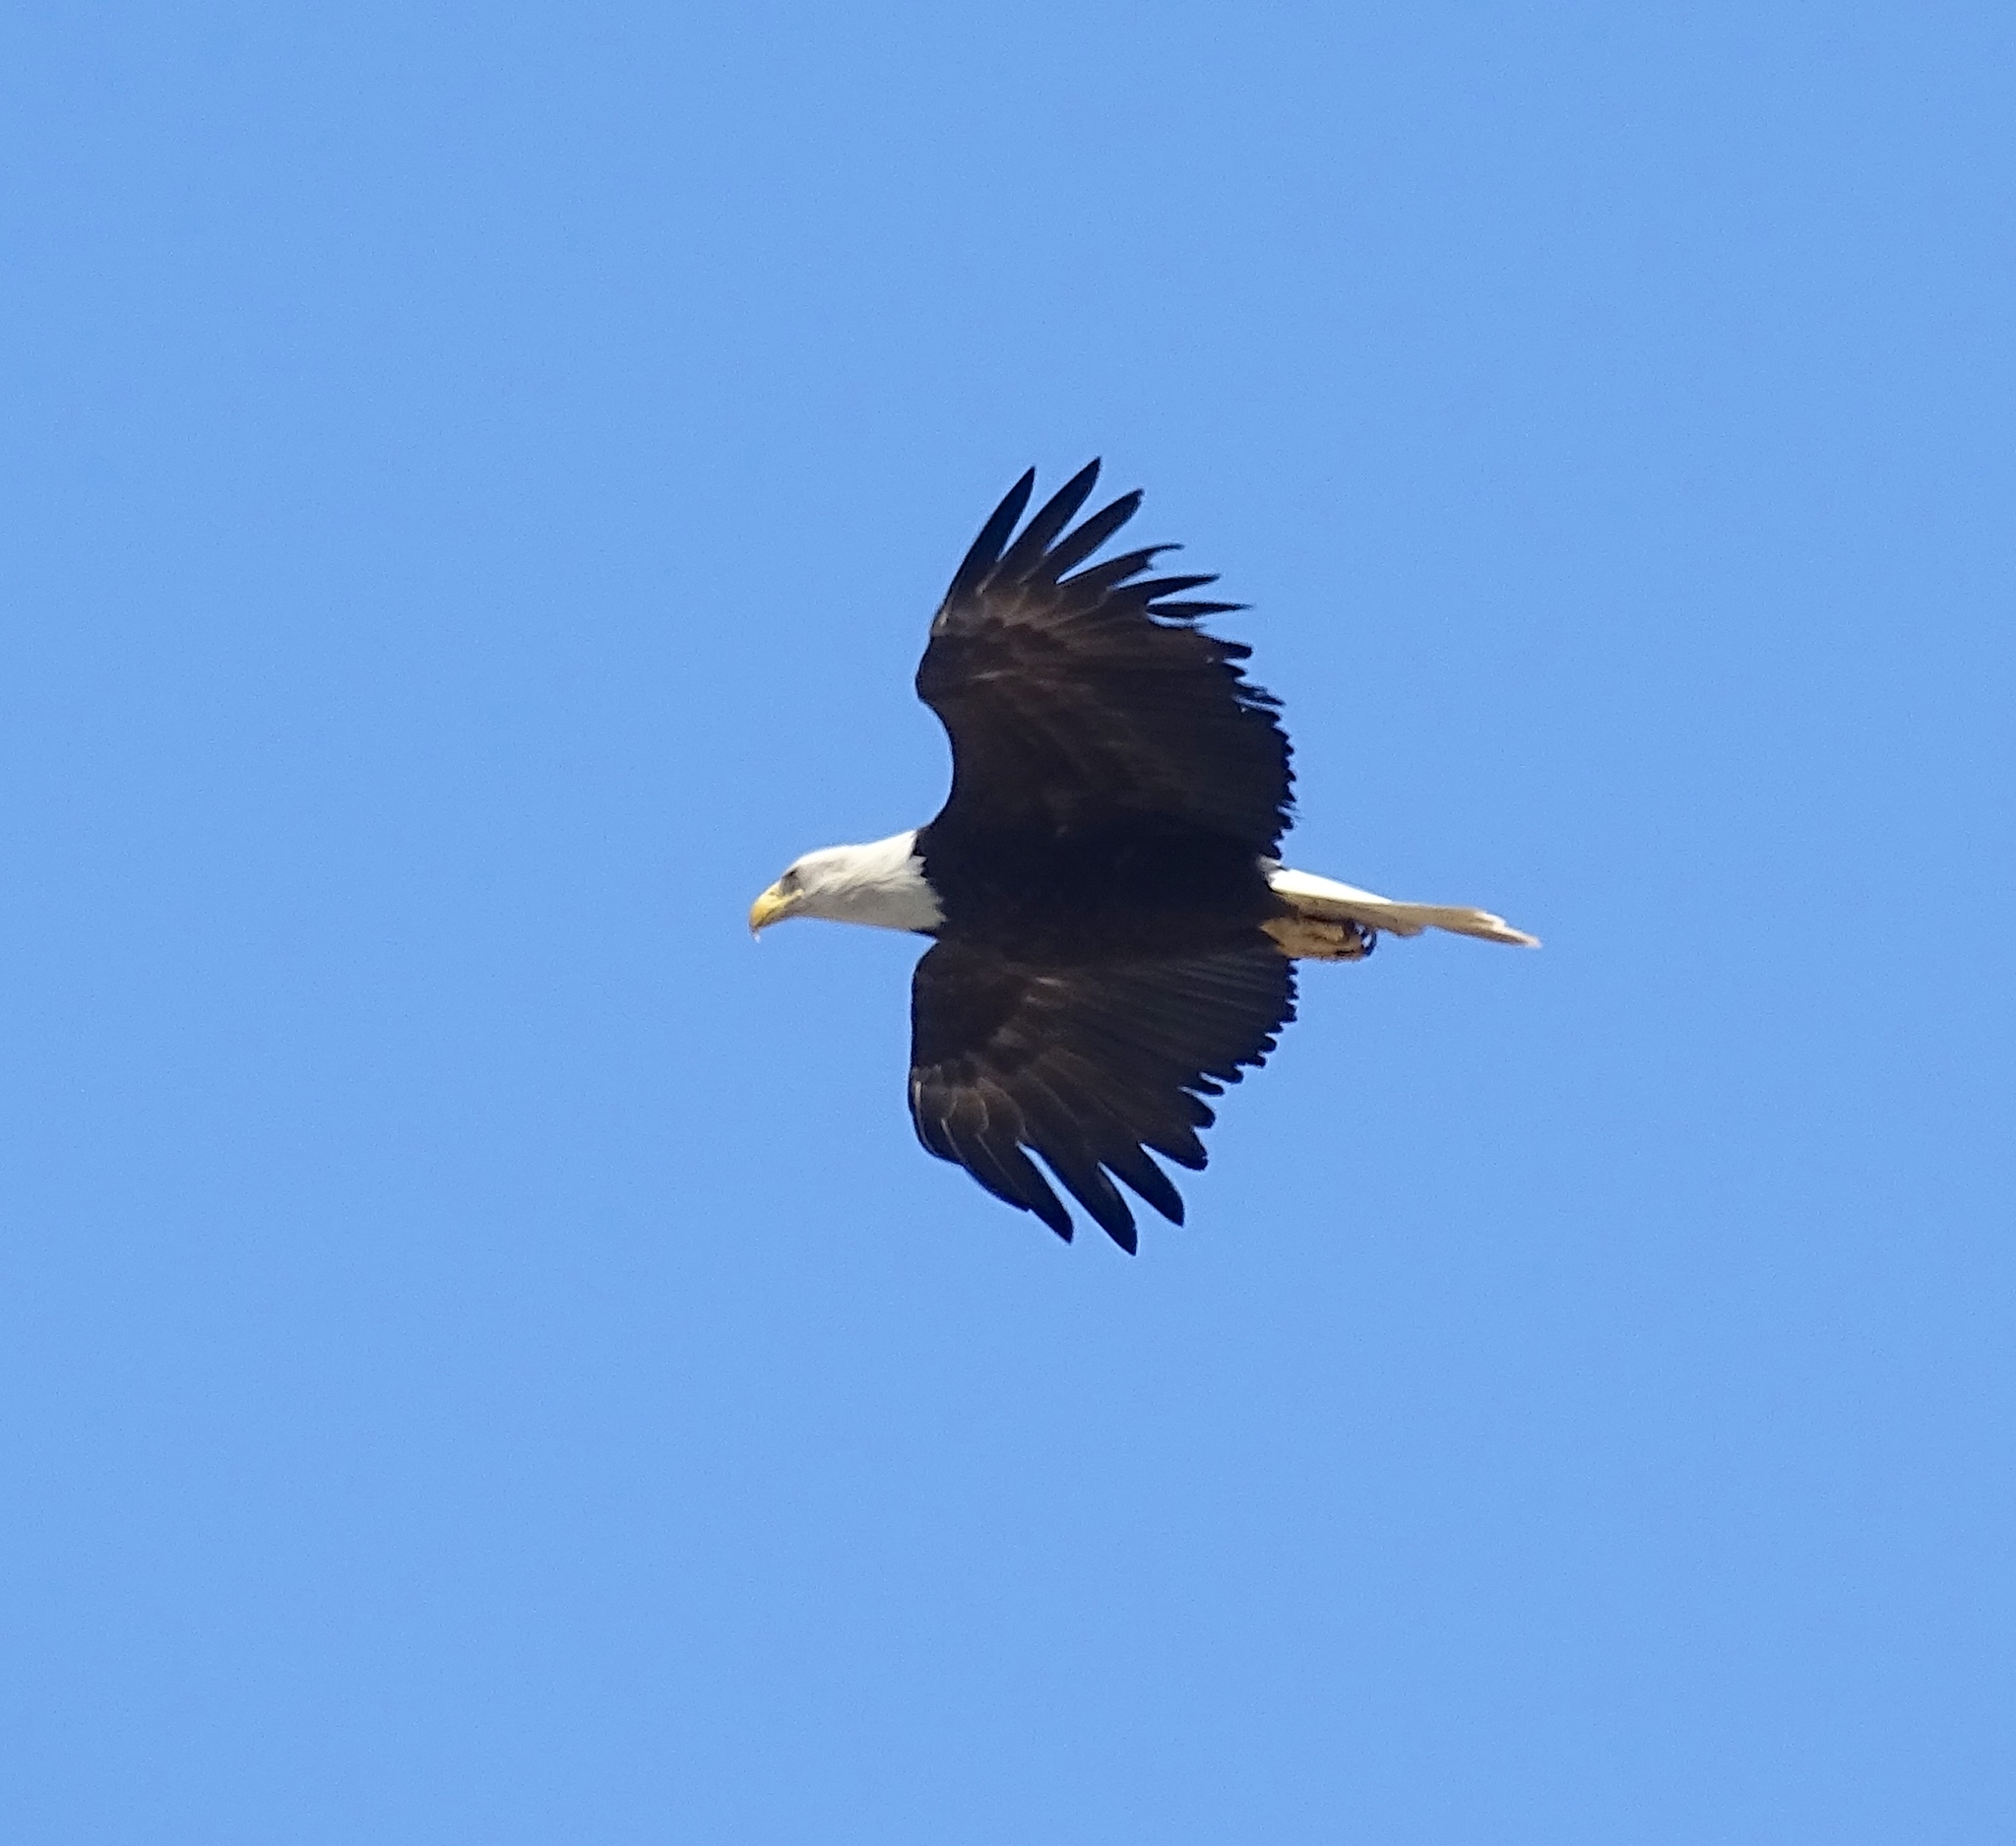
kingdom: Animalia
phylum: Chordata
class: Aves
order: Accipitriformes
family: Accipitridae
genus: Haliaeetus
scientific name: Haliaeetus leucocephalus
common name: Bald eagle
